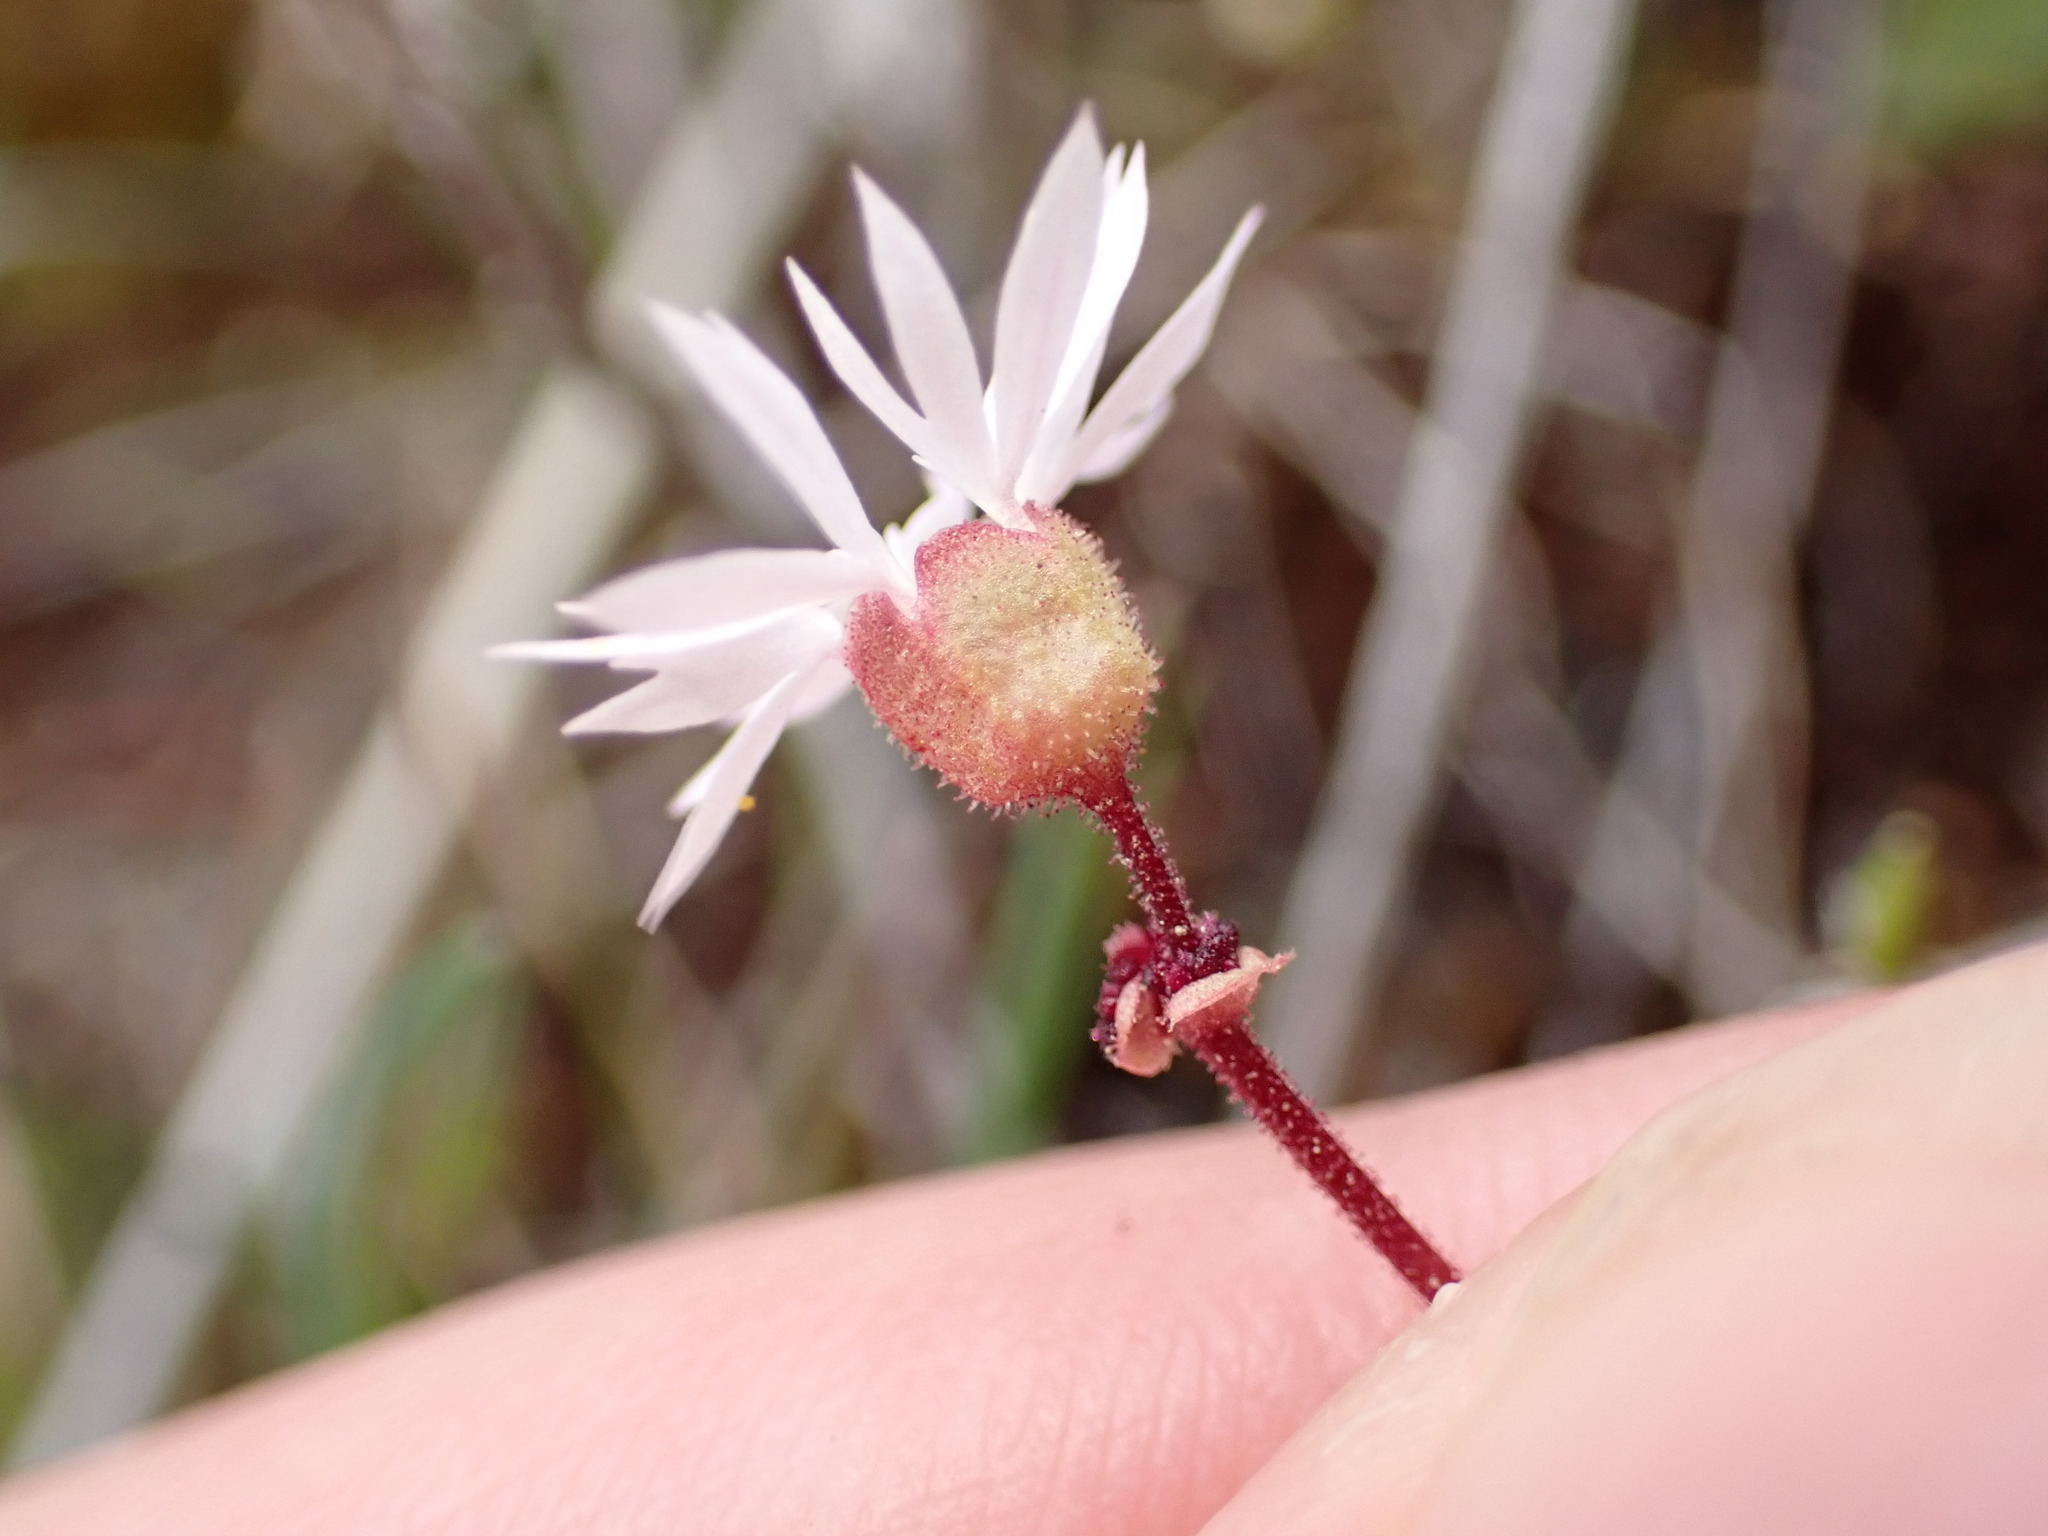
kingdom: Plantae
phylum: Tracheophyta
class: Magnoliopsida
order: Saxifragales
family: Saxifragaceae
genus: Lithophragma
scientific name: Lithophragma glabrum
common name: Bulbous prairie-star
